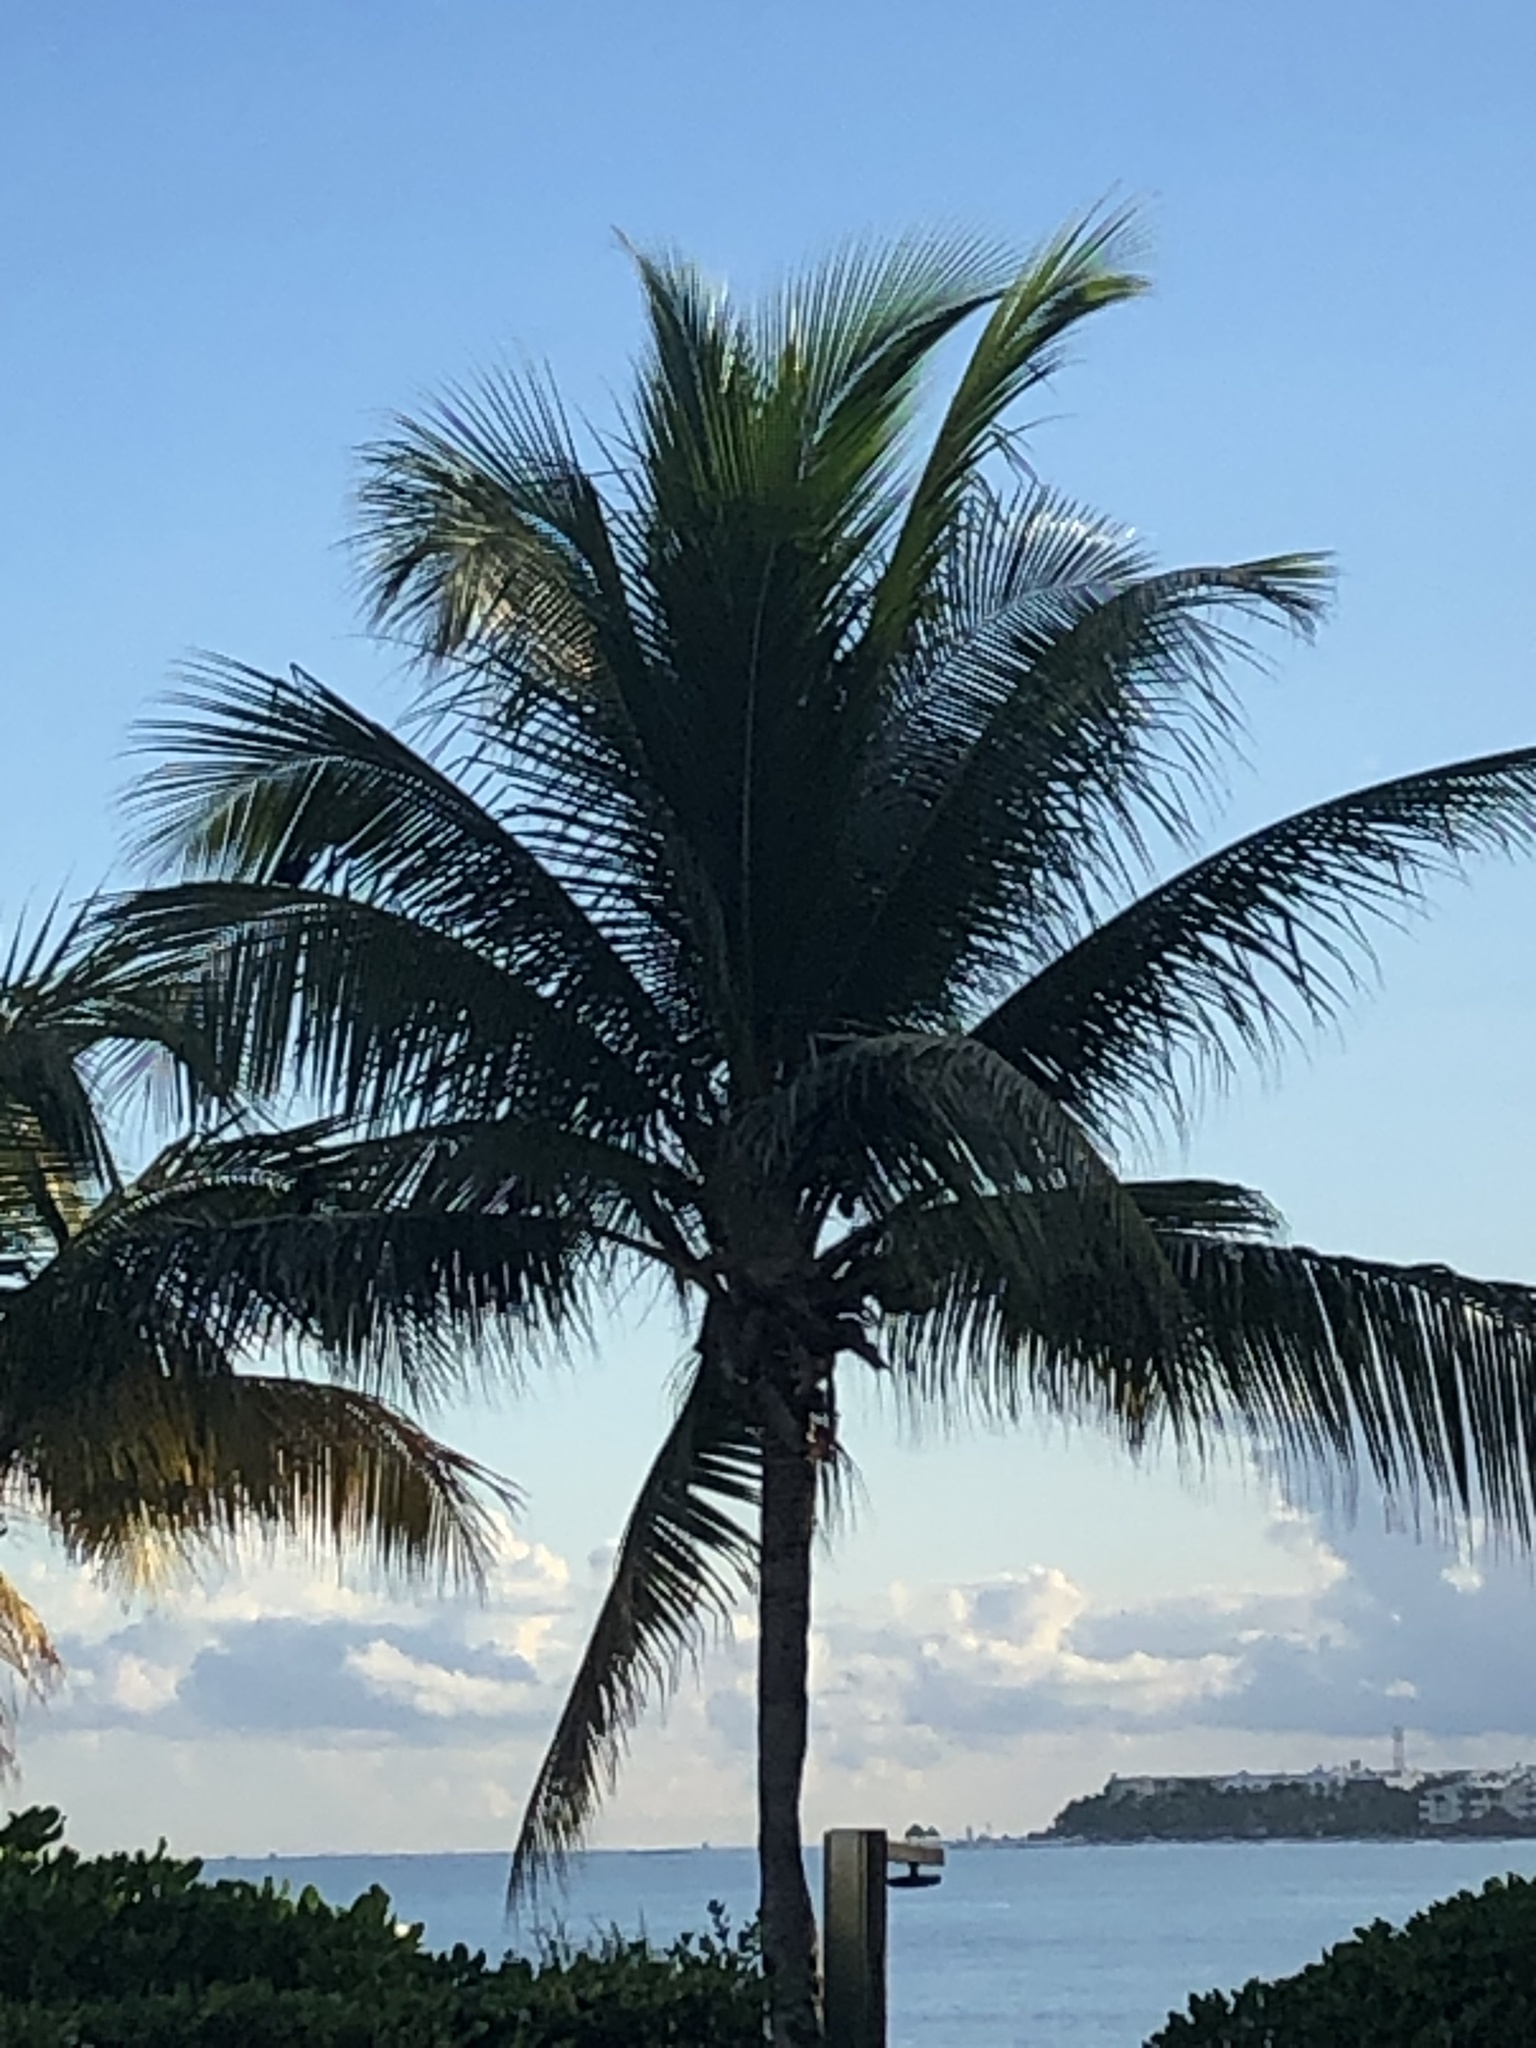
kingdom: Plantae
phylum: Tracheophyta
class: Liliopsida
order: Arecales
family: Arecaceae
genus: Cocos
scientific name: Cocos nucifera
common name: Coconut palm
